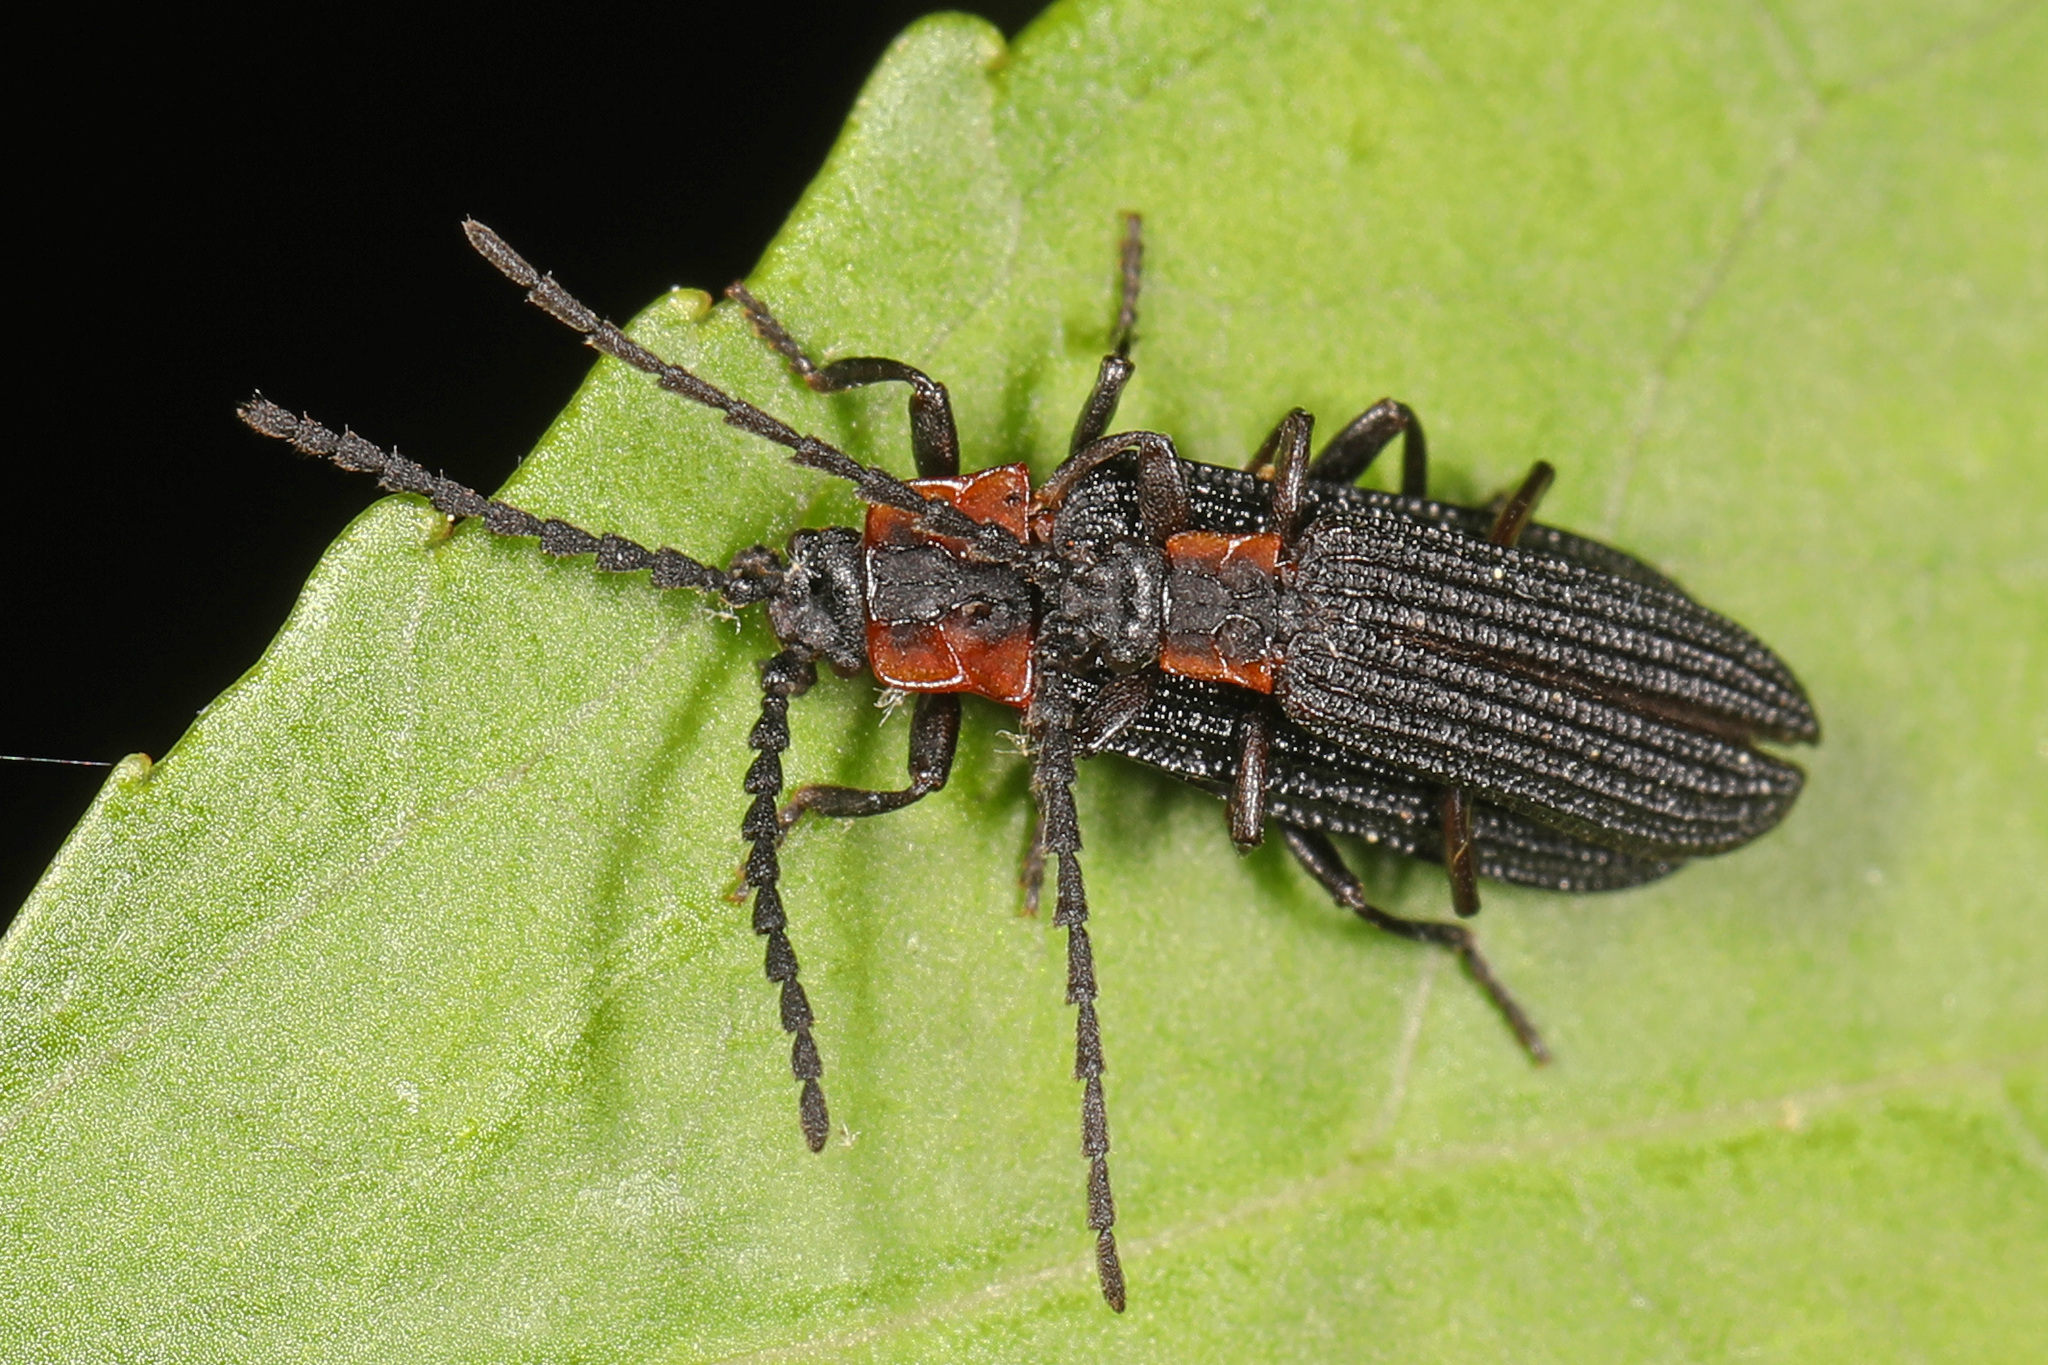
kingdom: Animalia
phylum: Arthropoda
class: Insecta
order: Coleoptera
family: Lycidae
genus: Erotides
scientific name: Erotides sculptilis
